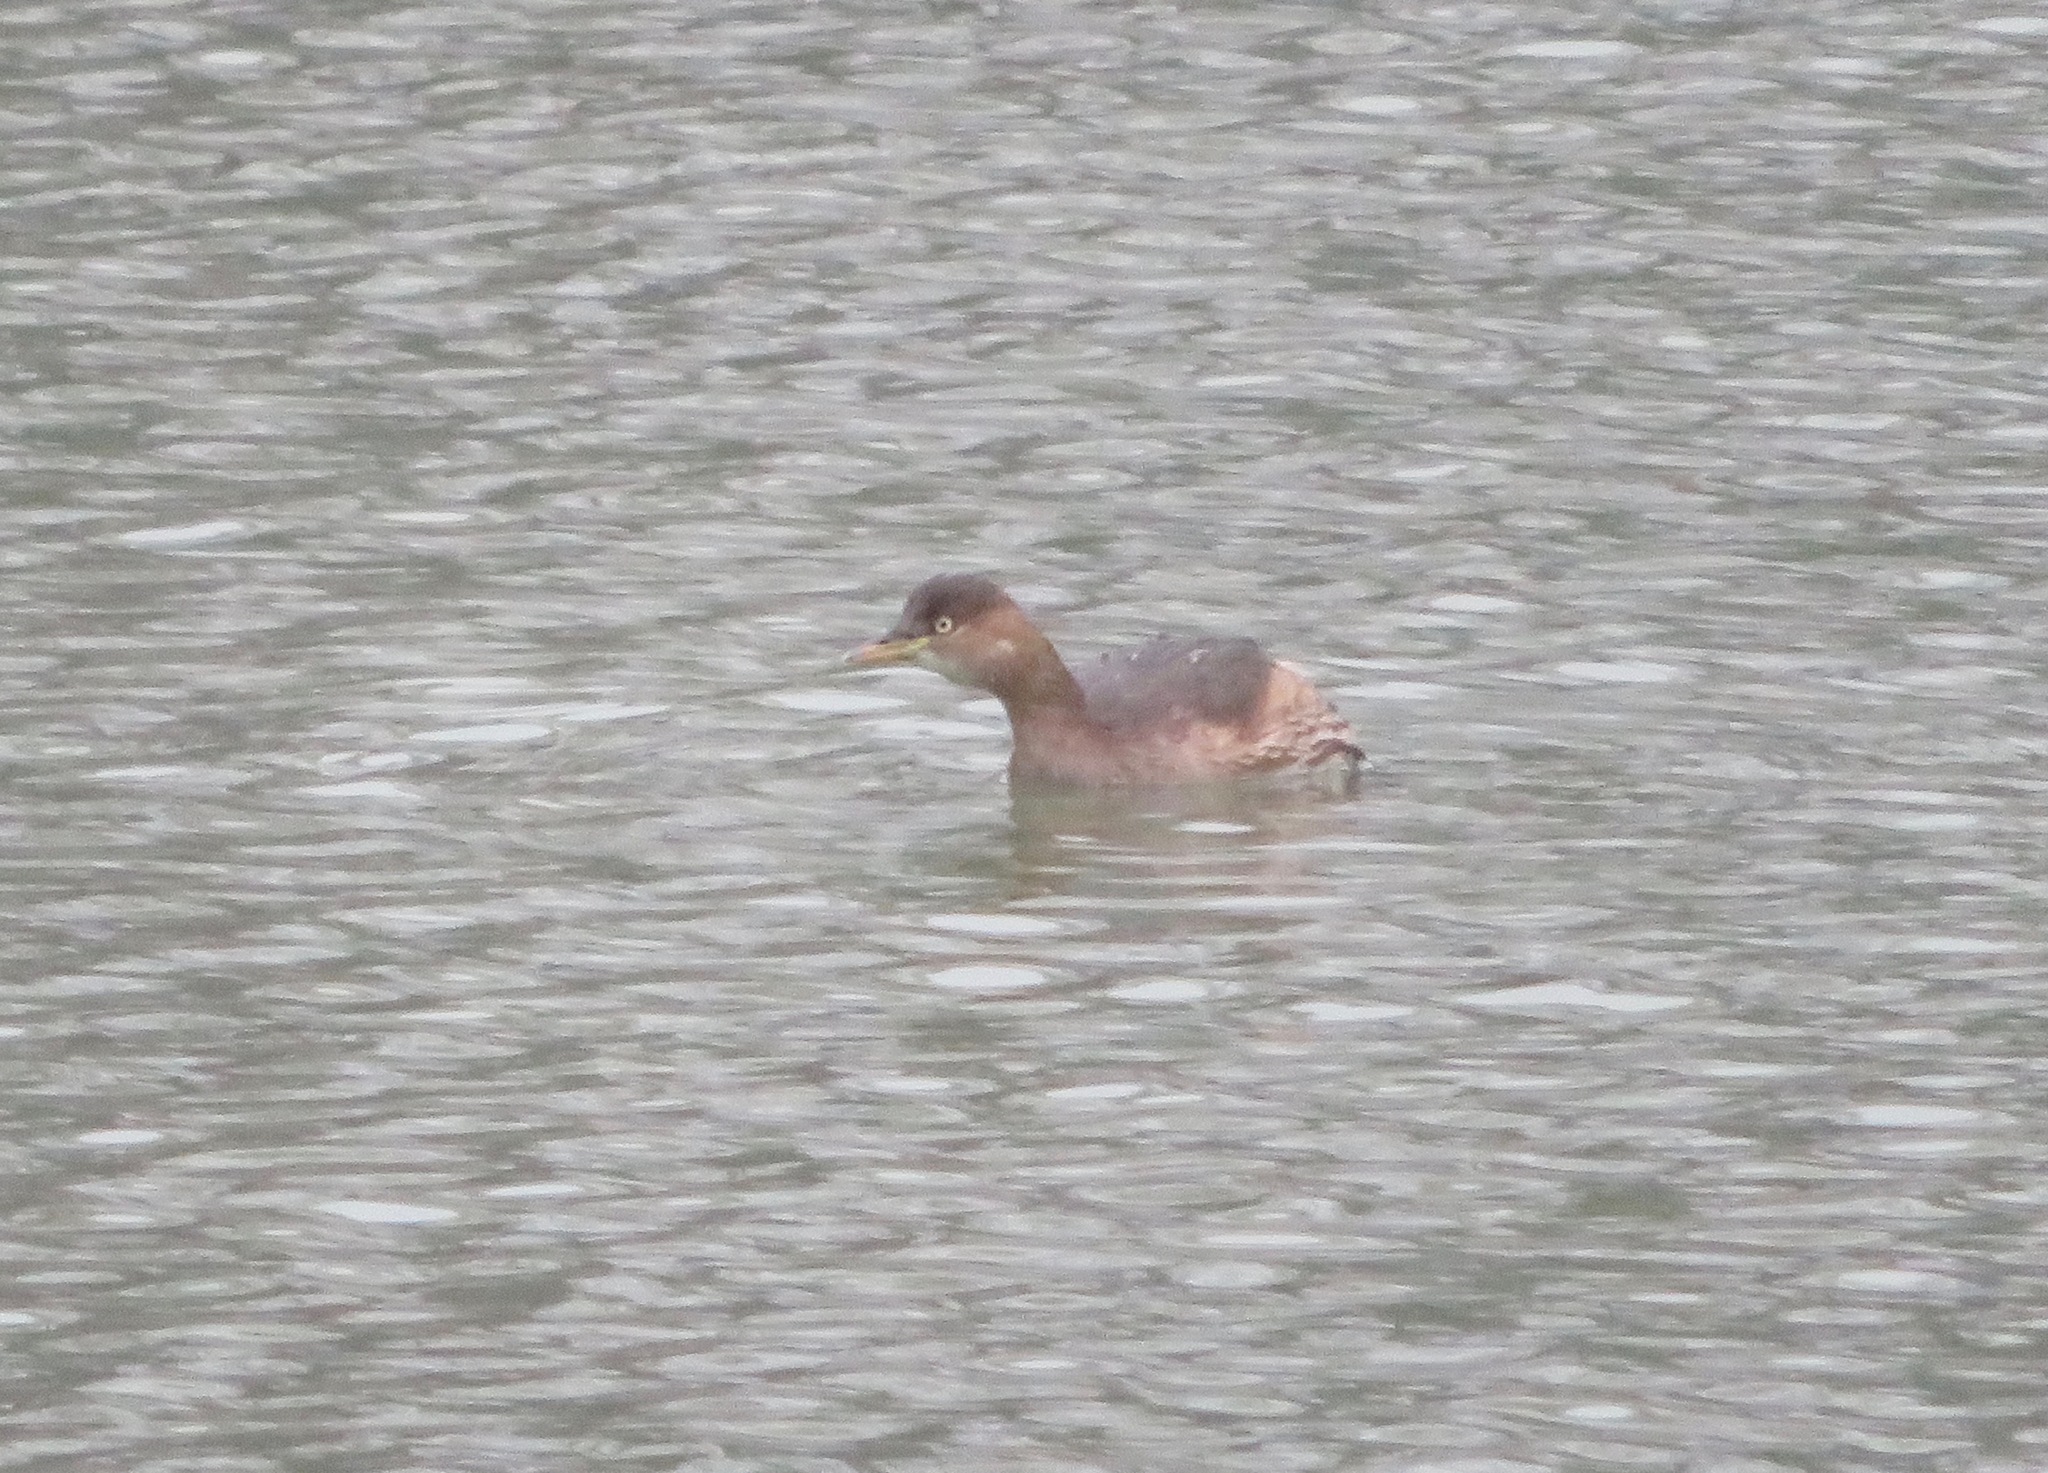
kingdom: Animalia
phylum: Chordata
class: Aves
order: Podicipediformes
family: Podicipedidae
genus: Tachybaptus
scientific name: Tachybaptus ruficollis
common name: Little grebe
